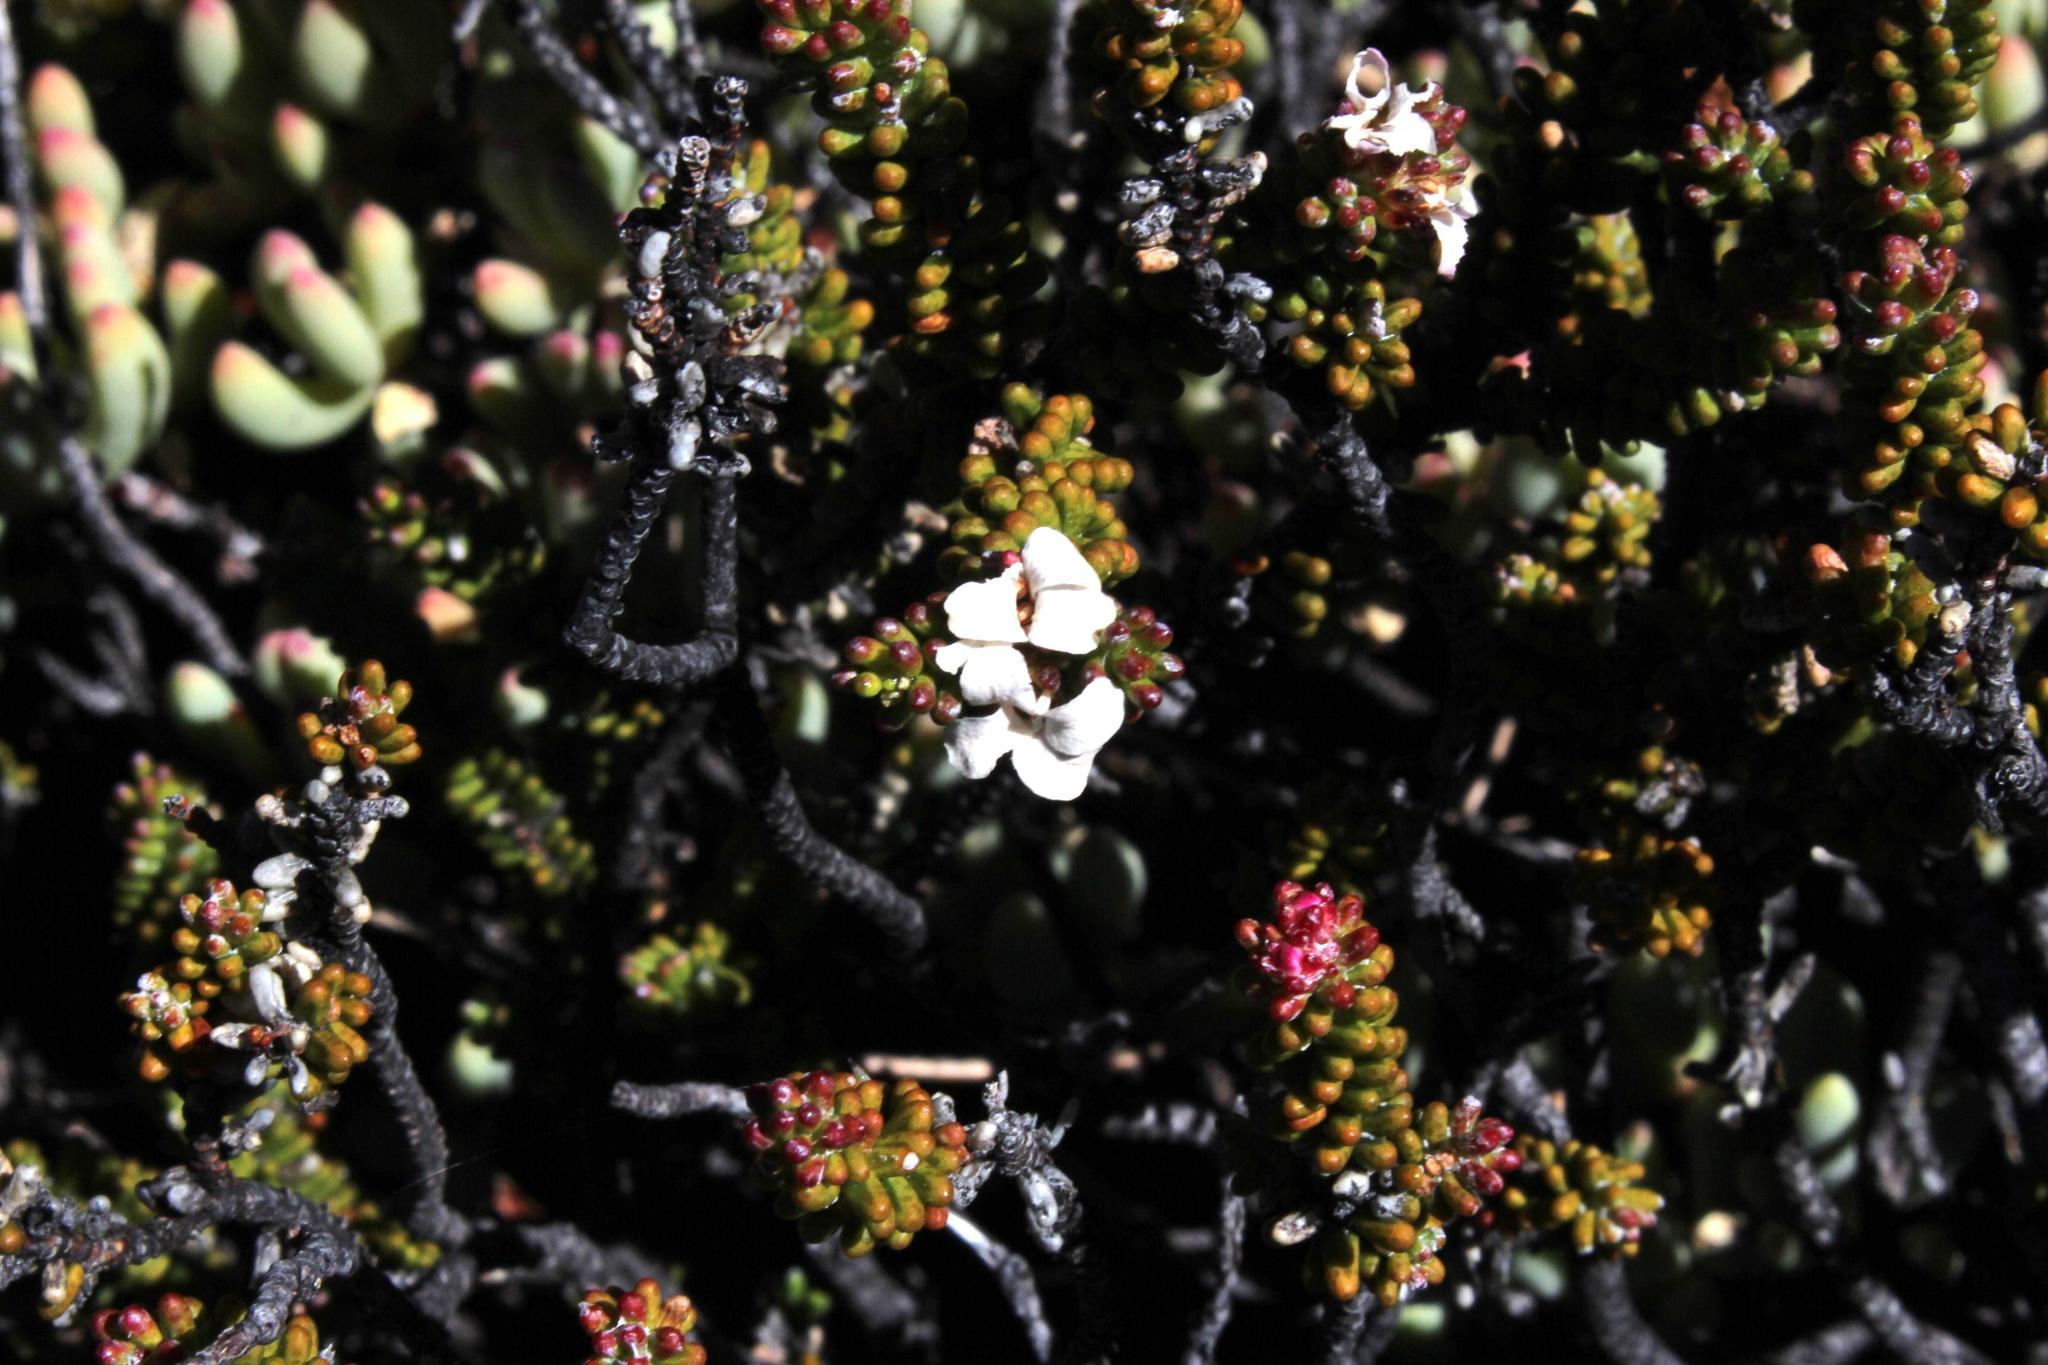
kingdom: Plantae
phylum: Tracheophyta
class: Magnoliopsida
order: Sapindales
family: Rutaceae
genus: Acmadenia
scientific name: Acmadenia teretifolia
